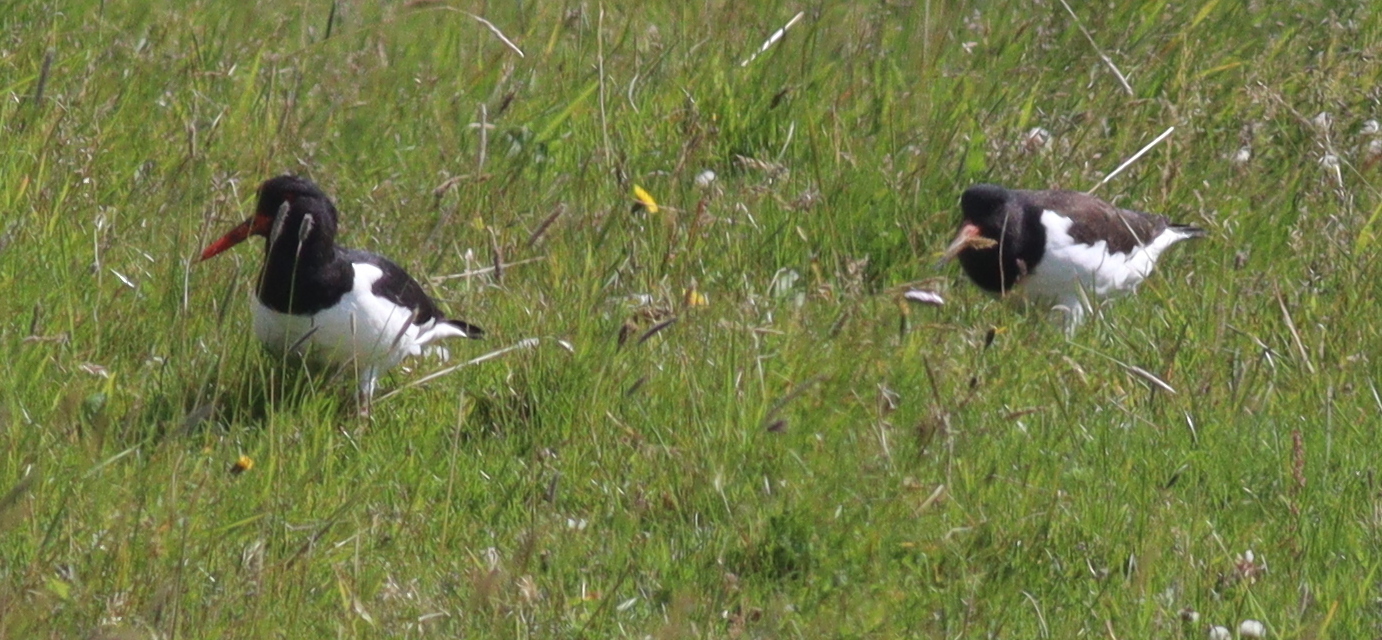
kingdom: Animalia
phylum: Chordata
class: Aves
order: Charadriiformes
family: Haematopodidae
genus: Haematopus
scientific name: Haematopus ostralegus
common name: Eurasian oystercatcher
